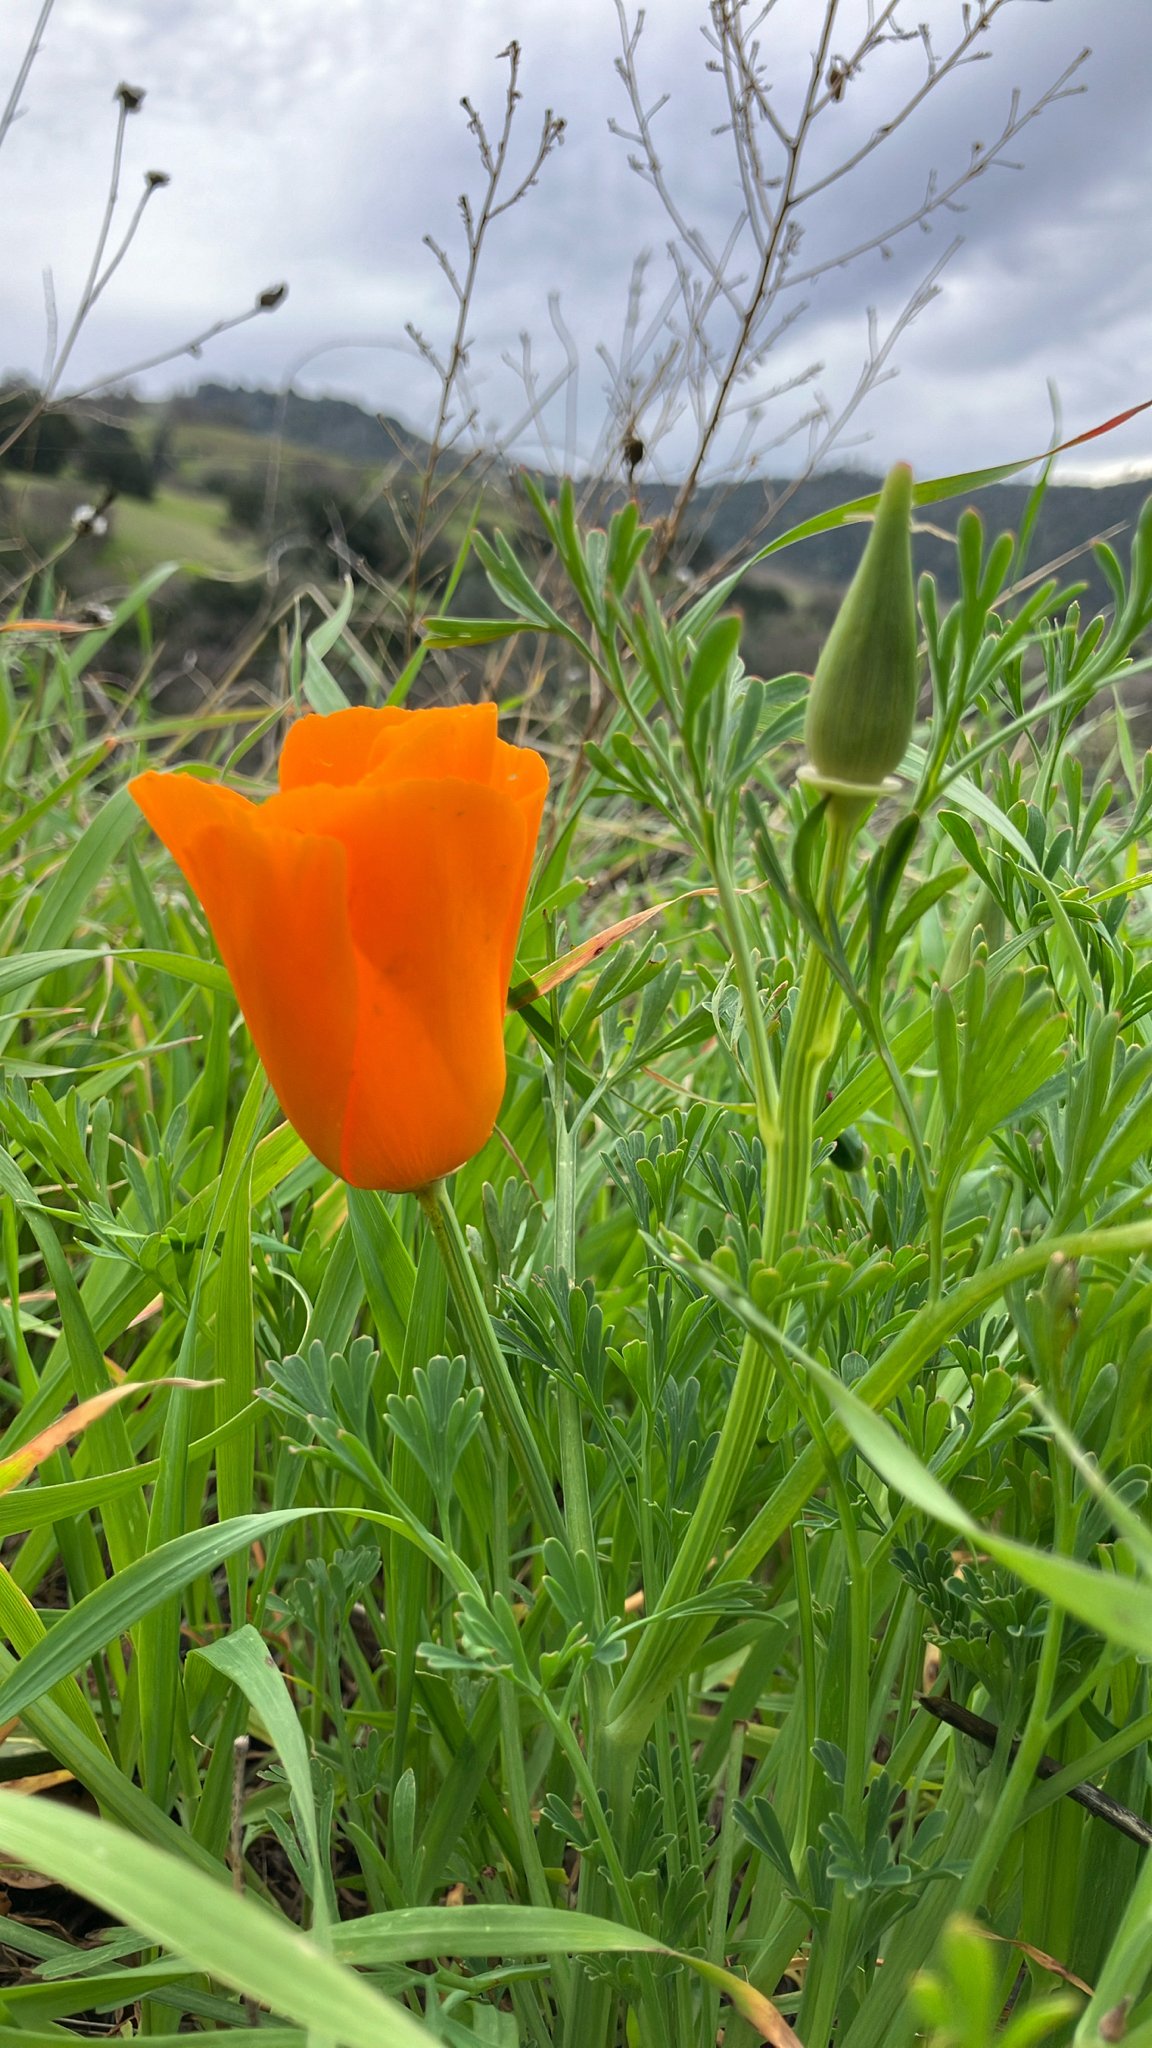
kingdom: Plantae
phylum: Tracheophyta
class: Magnoliopsida
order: Ranunculales
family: Papaveraceae
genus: Eschscholzia
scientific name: Eschscholzia californica
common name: California poppy
